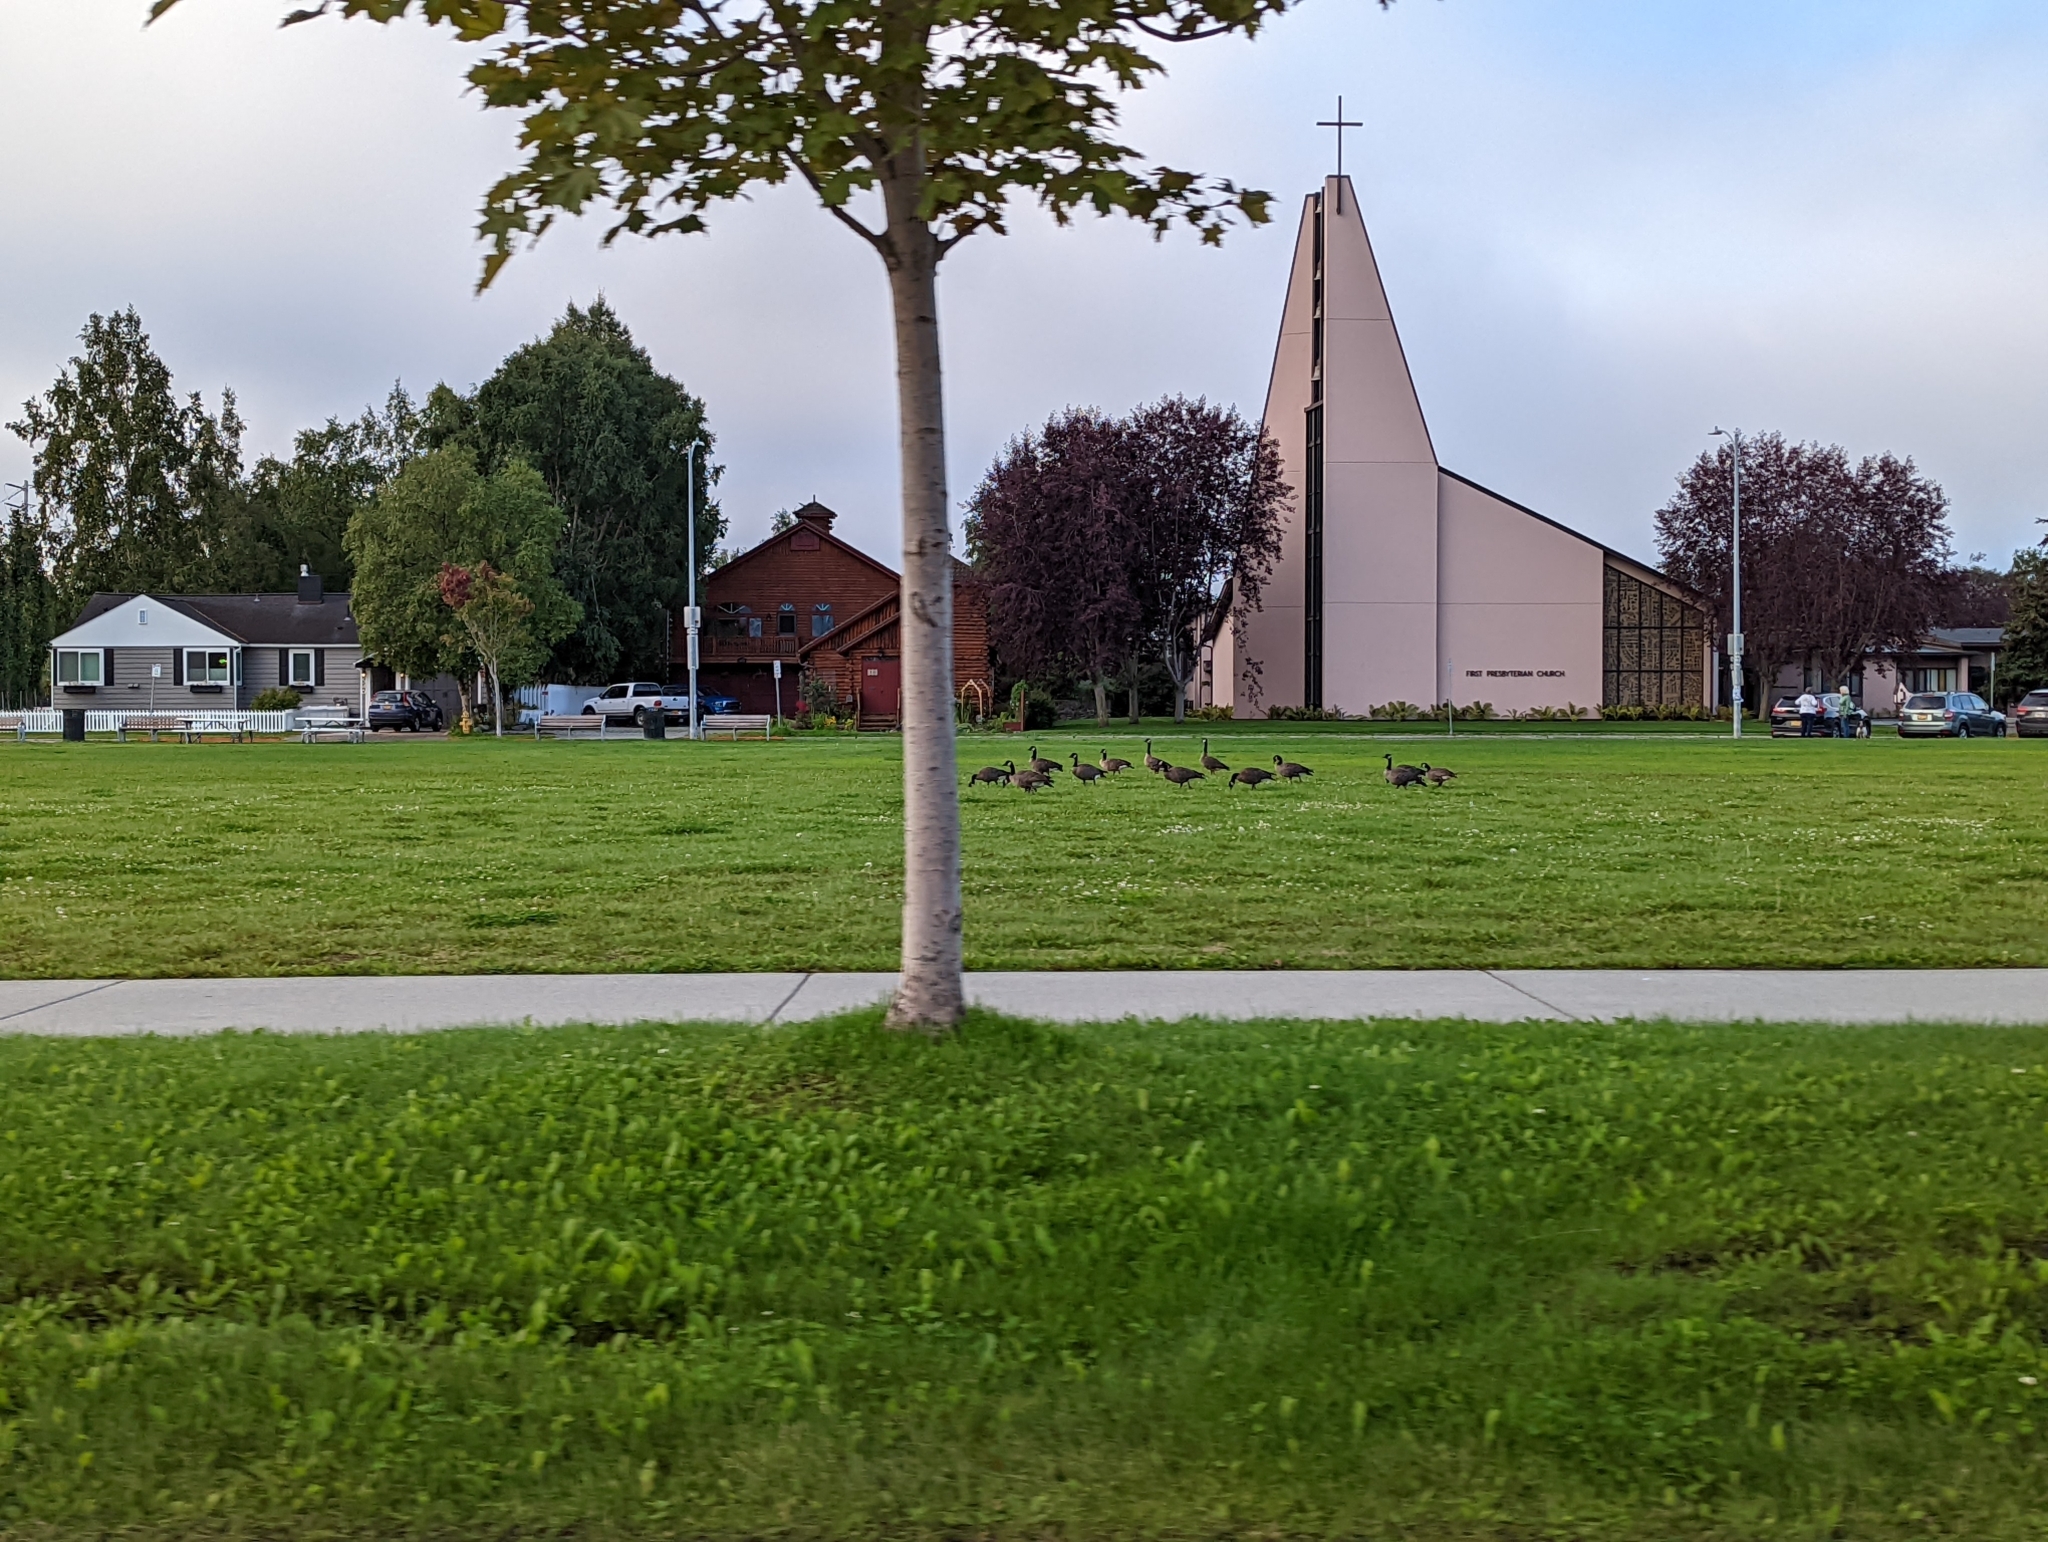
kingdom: Animalia
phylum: Chordata
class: Aves
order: Anseriformes
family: Anatidae
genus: Branta
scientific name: Branta canadensis
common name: Canada goose
